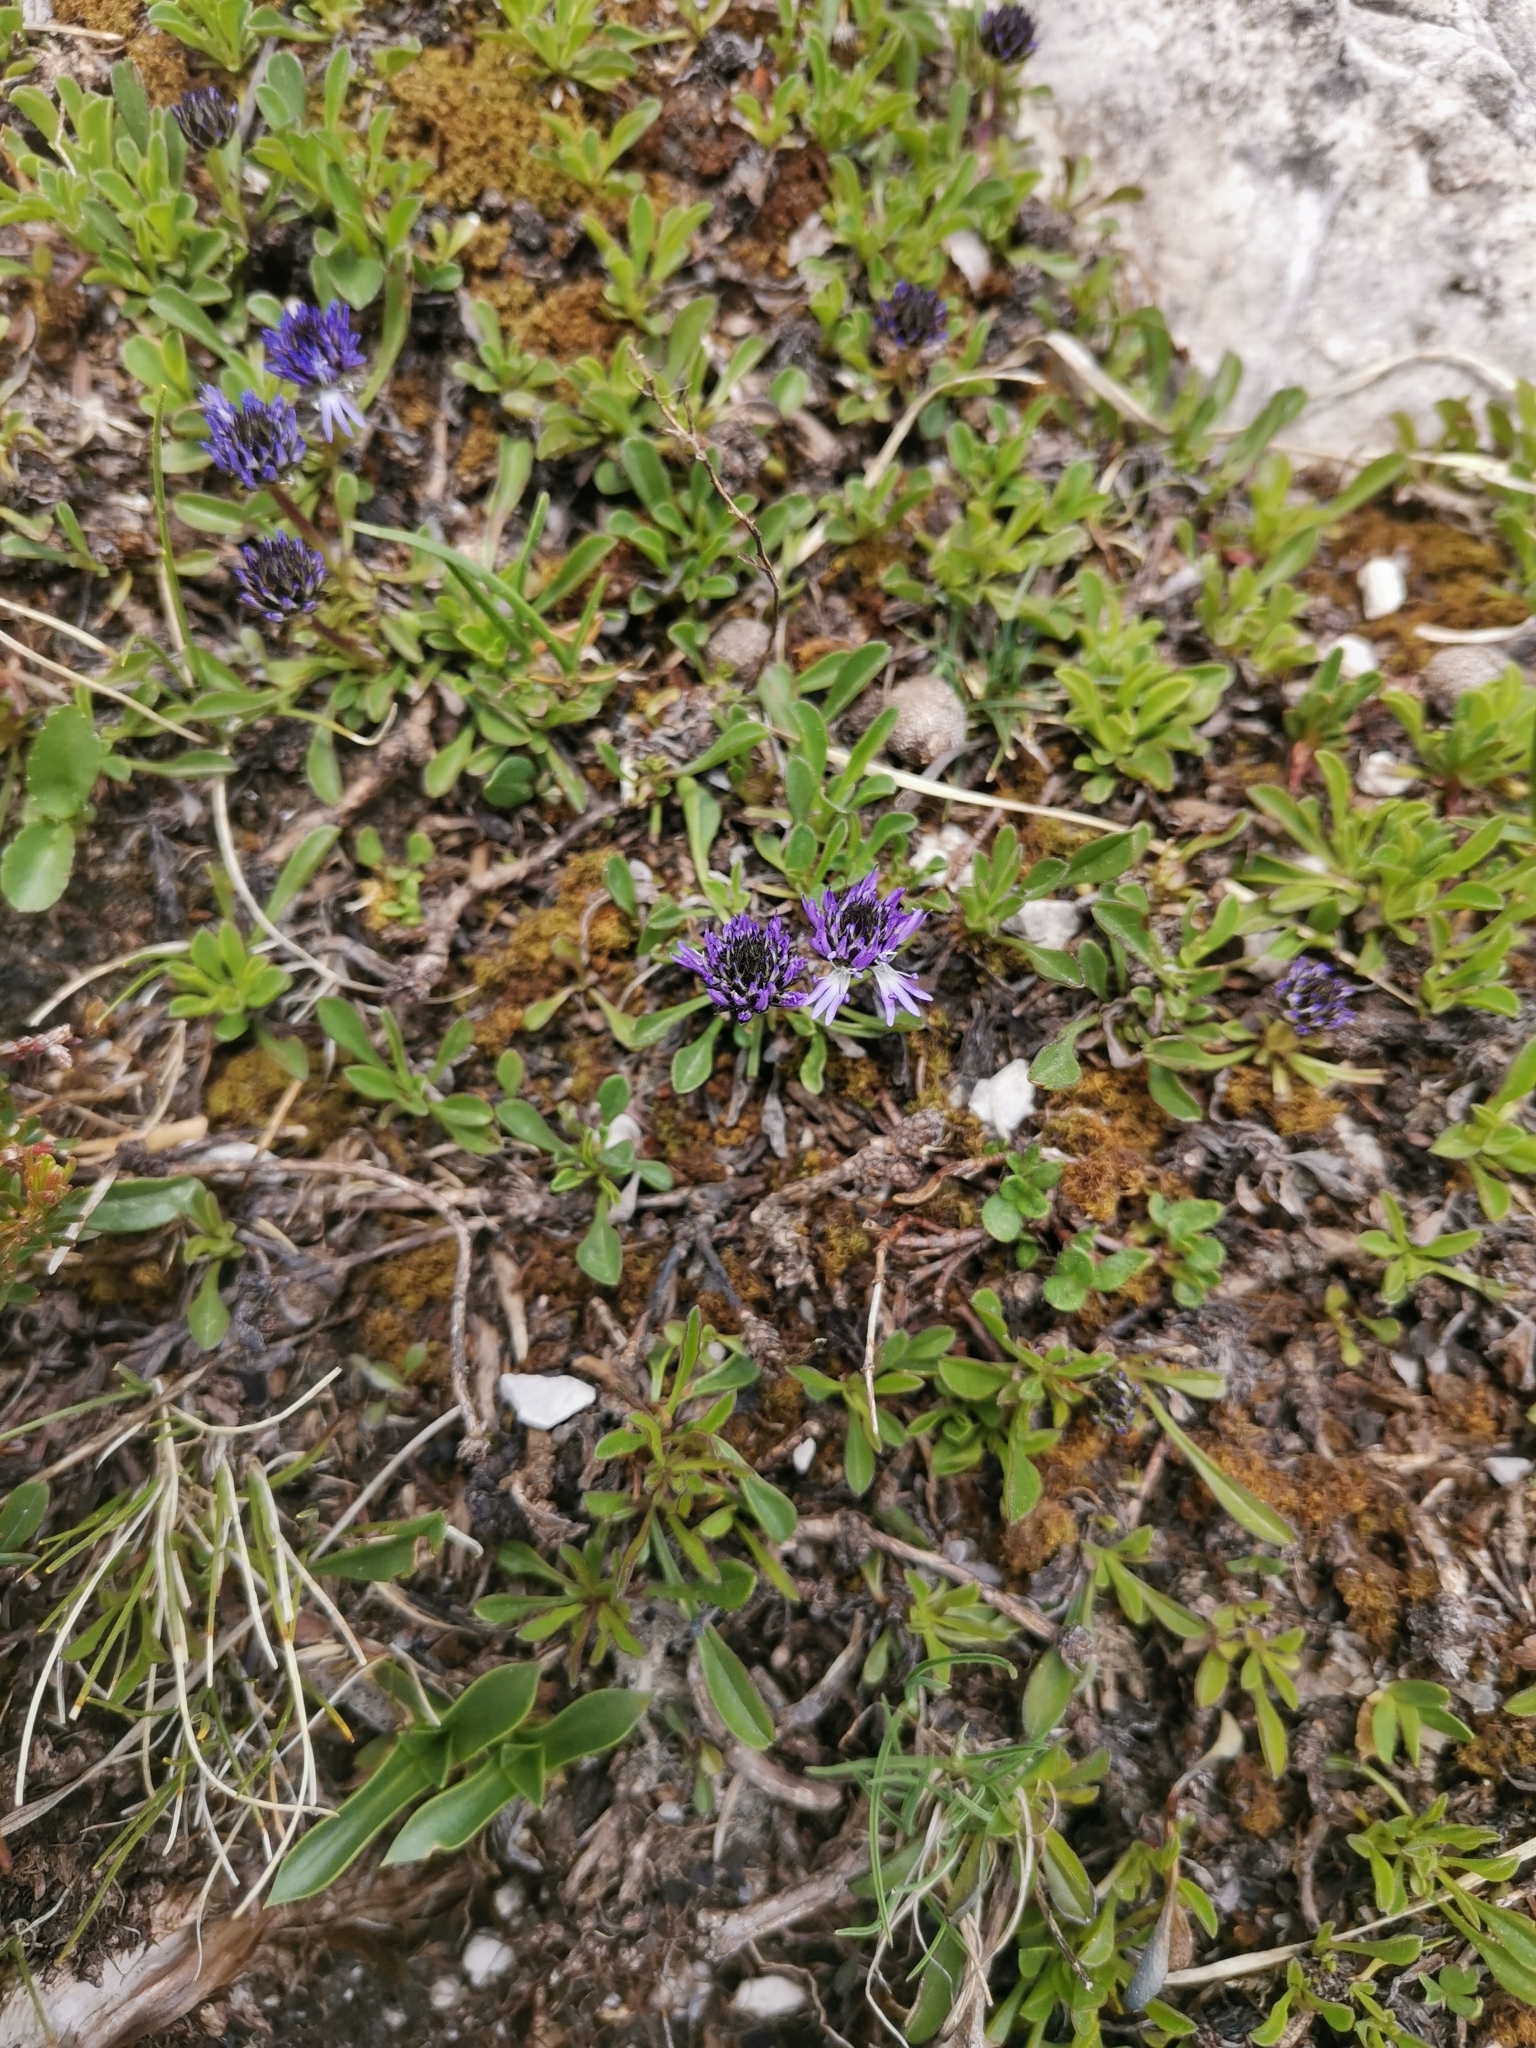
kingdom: Plantae
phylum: Tracheophyta
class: Magnoliopsida
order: Lamiales
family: Plantaginaceae
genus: Globularia
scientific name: Globularia cordifolia
